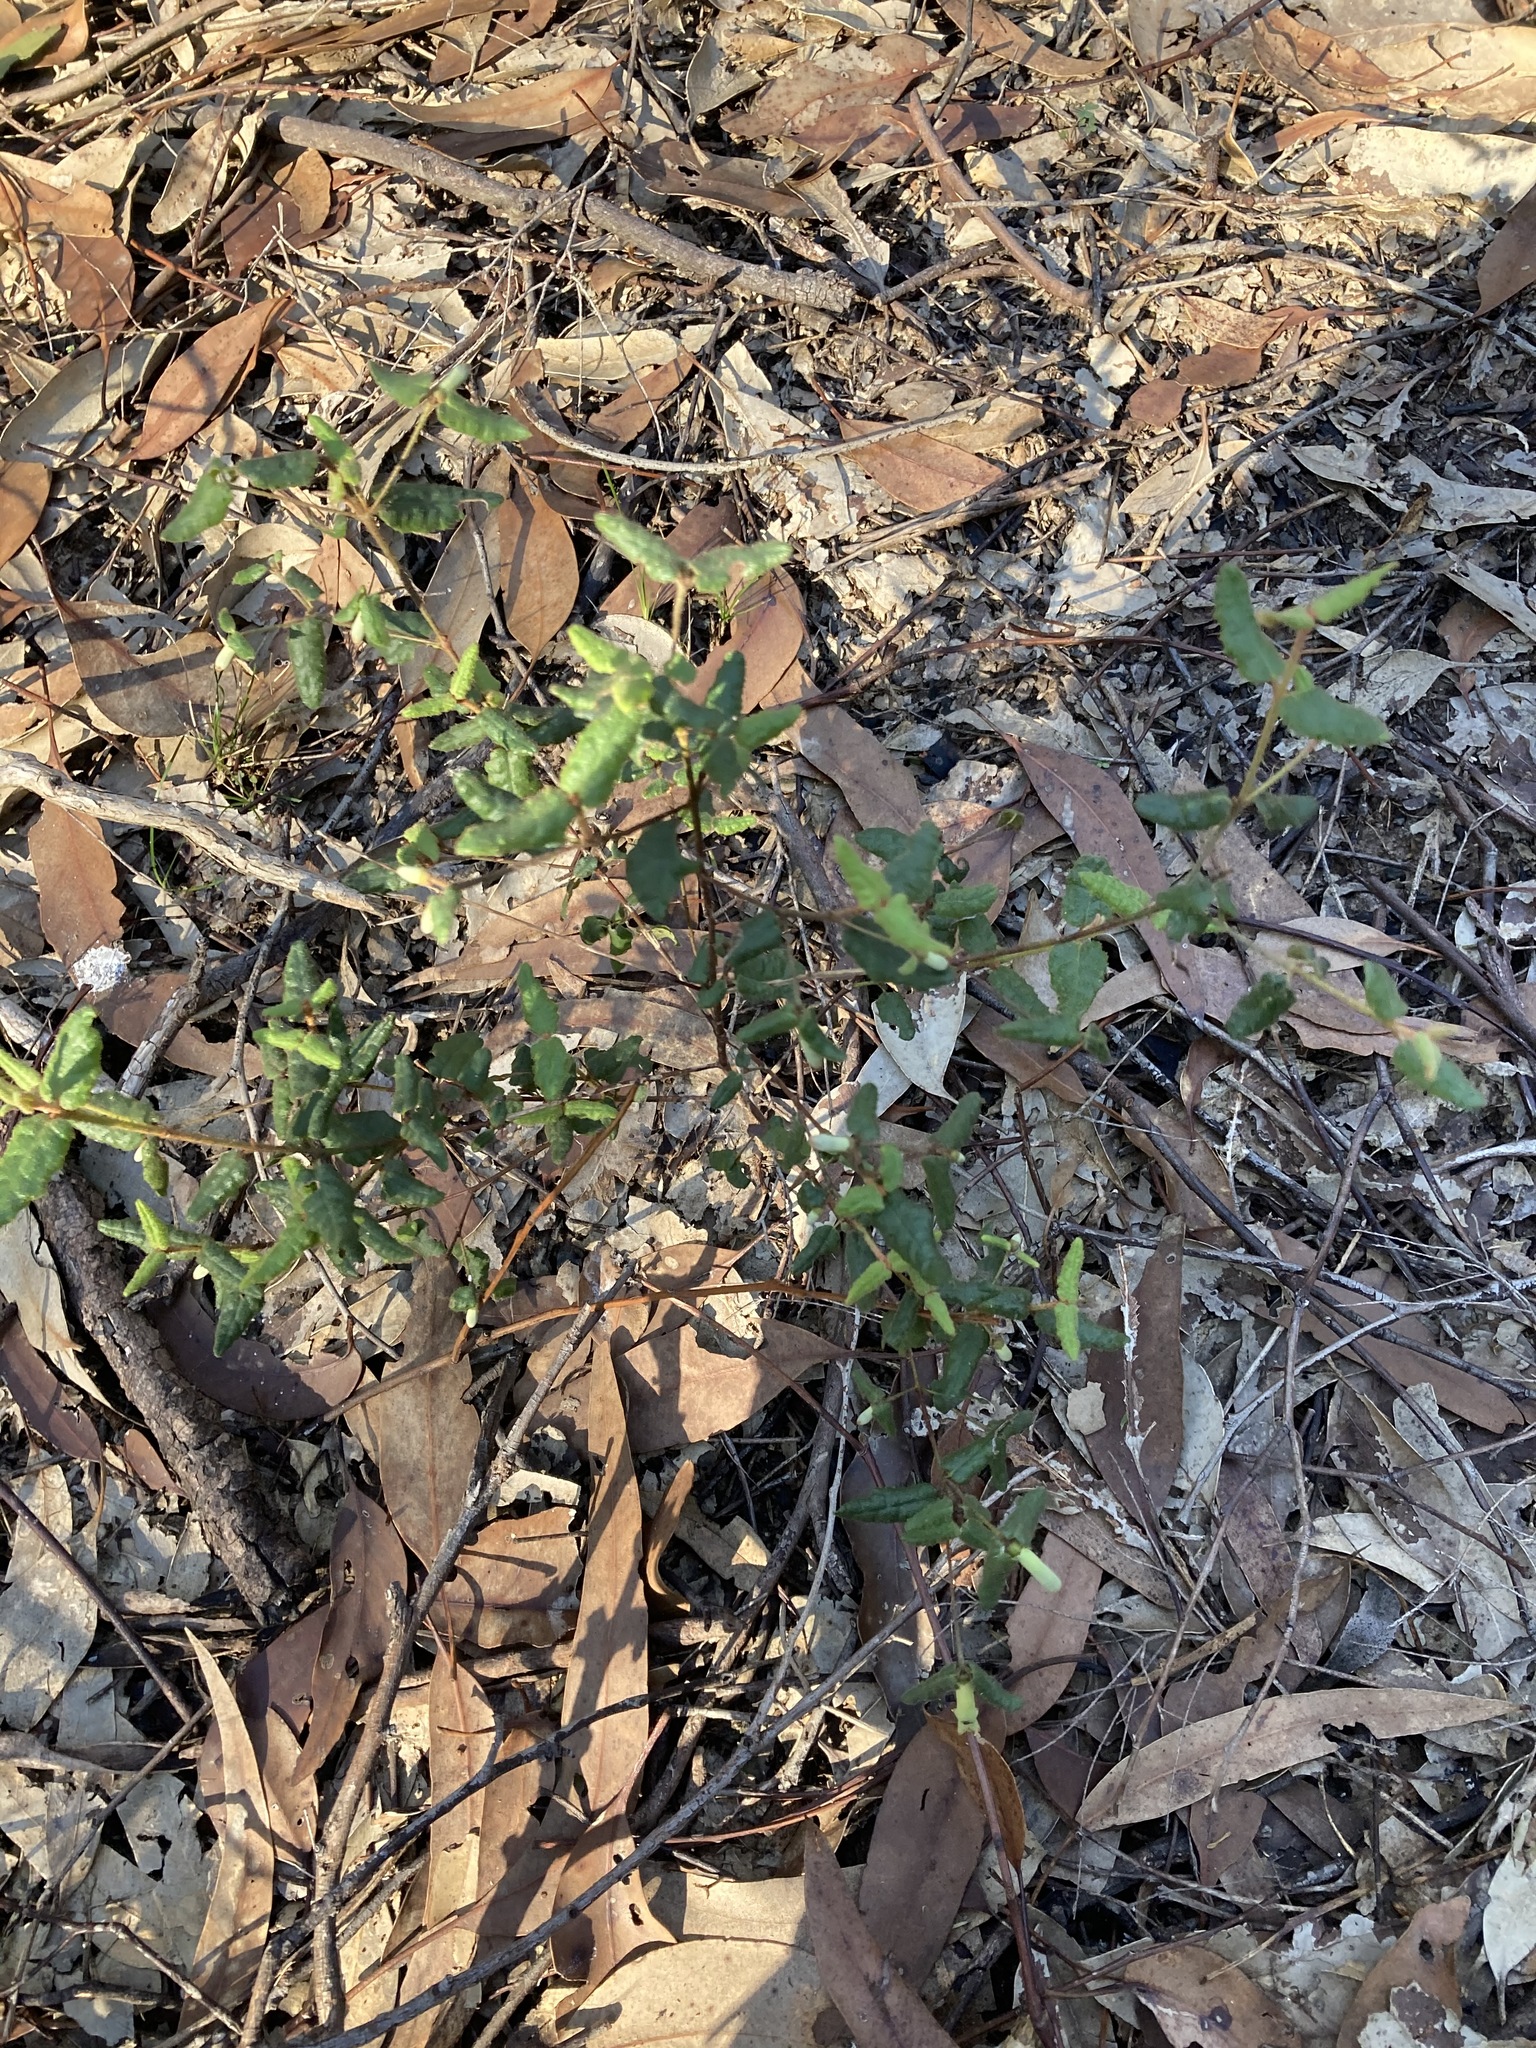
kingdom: Plantae
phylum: Tracheophyta
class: Magnoliopsida
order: Sapindales
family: Rutaceae
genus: Correa
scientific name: Correa reflexa
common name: Common correa
